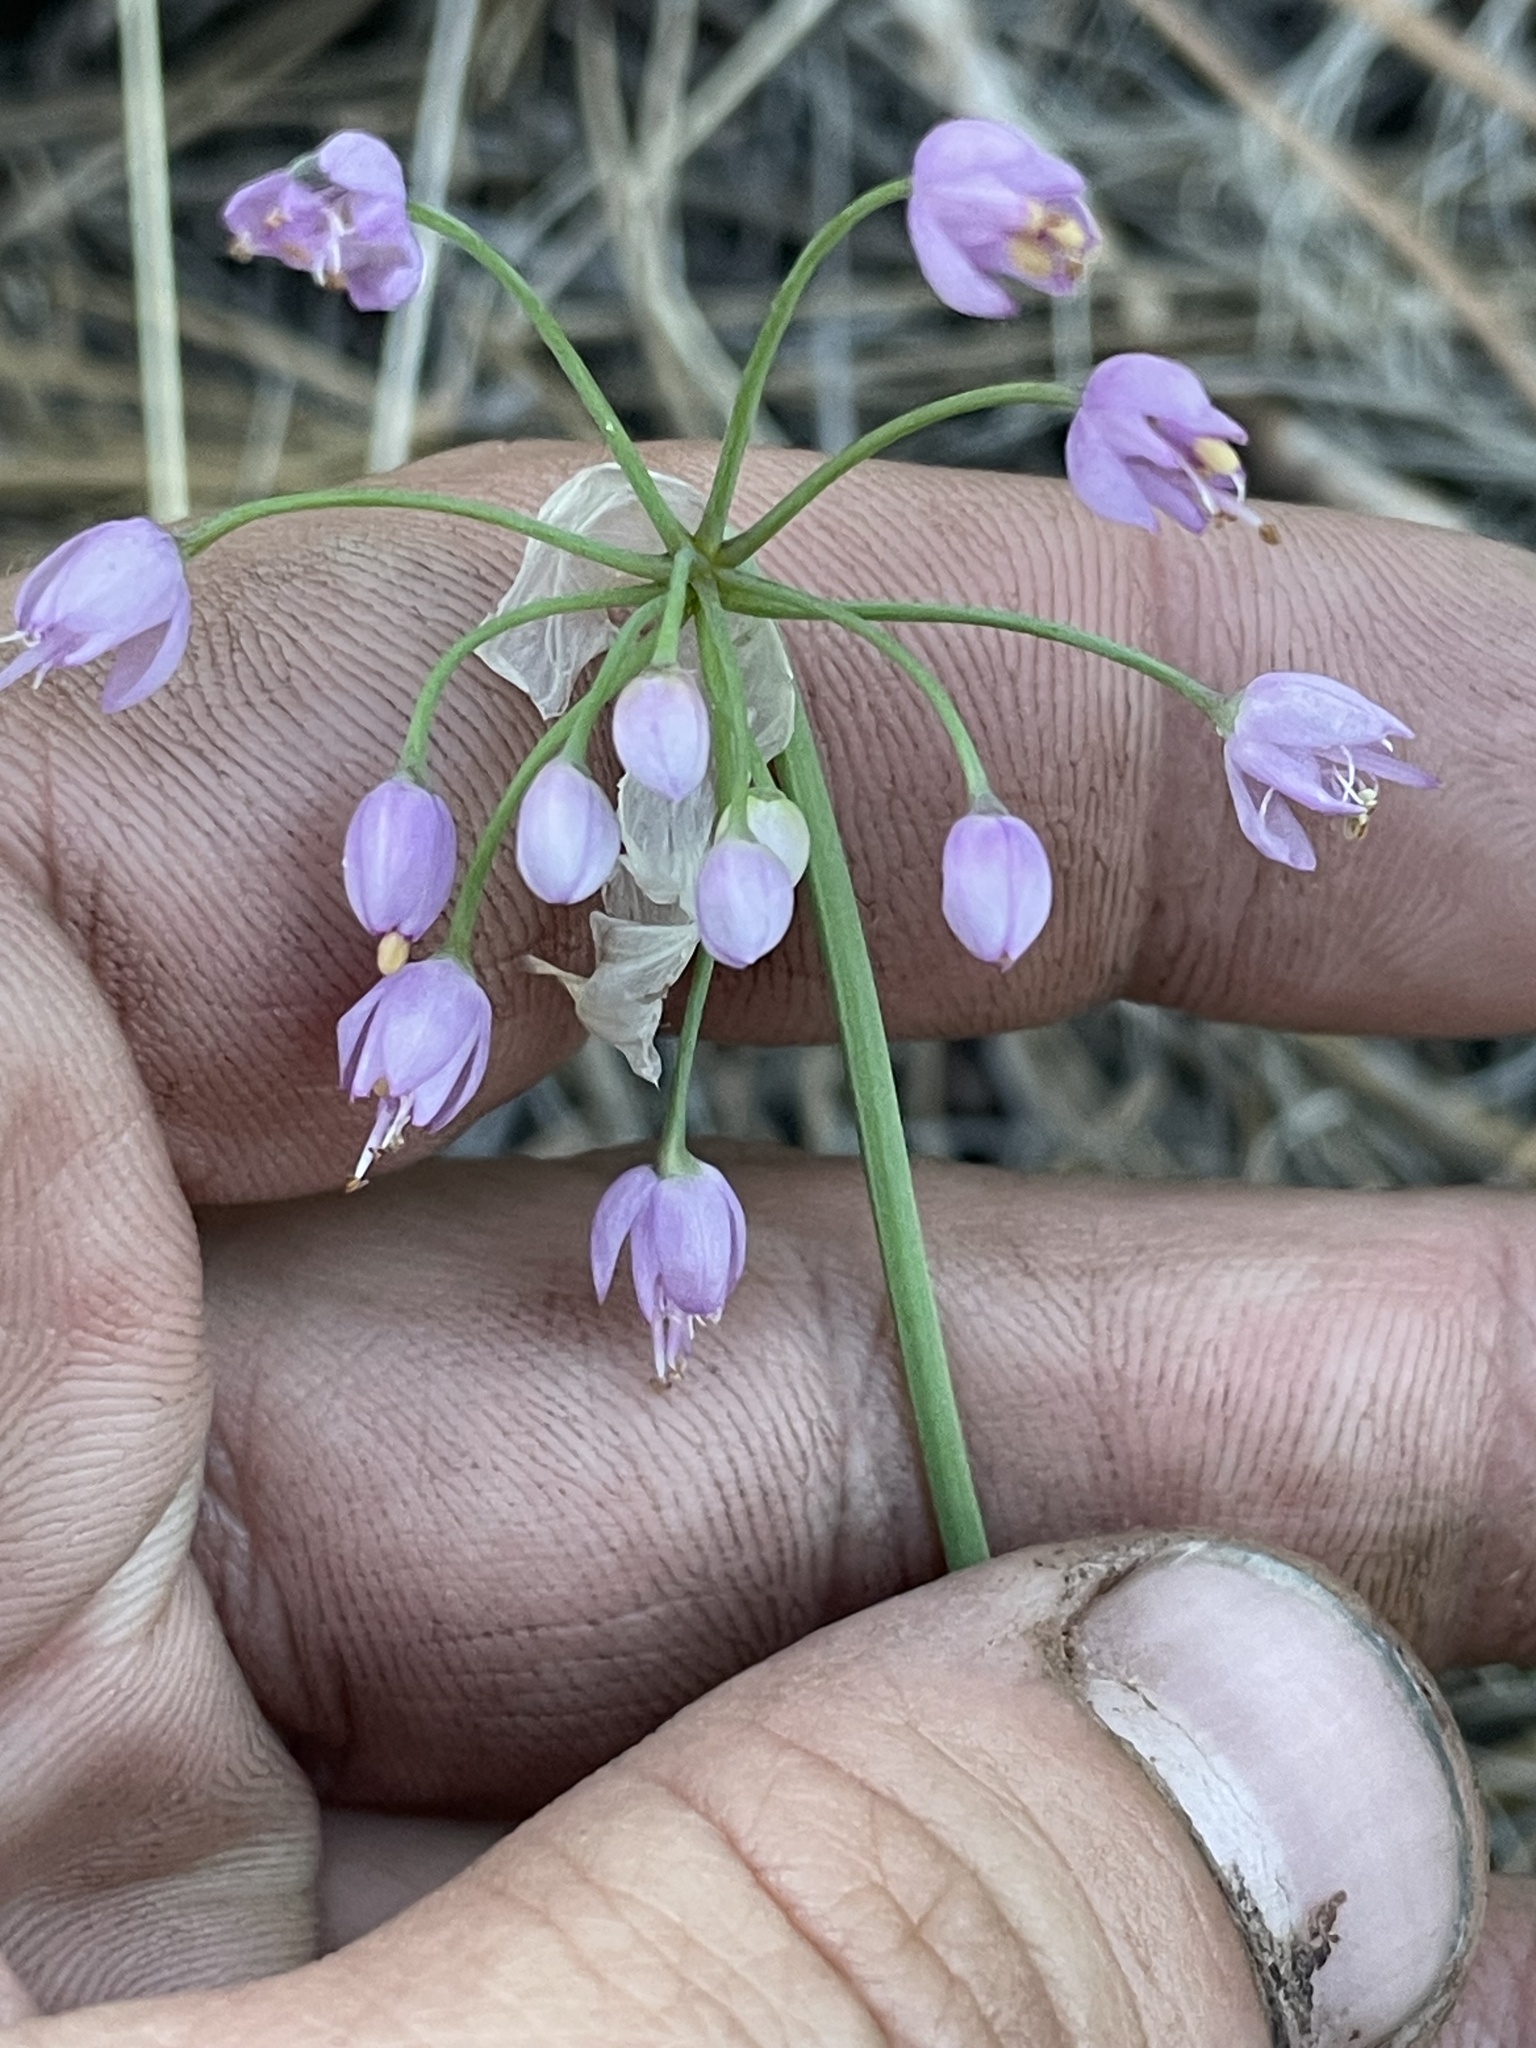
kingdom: Plantae
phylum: Tracheophyta
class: Liliopsida
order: Asparagales
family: Amaryllidaceae
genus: Allium
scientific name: Allium cernuum
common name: Nodding onion
